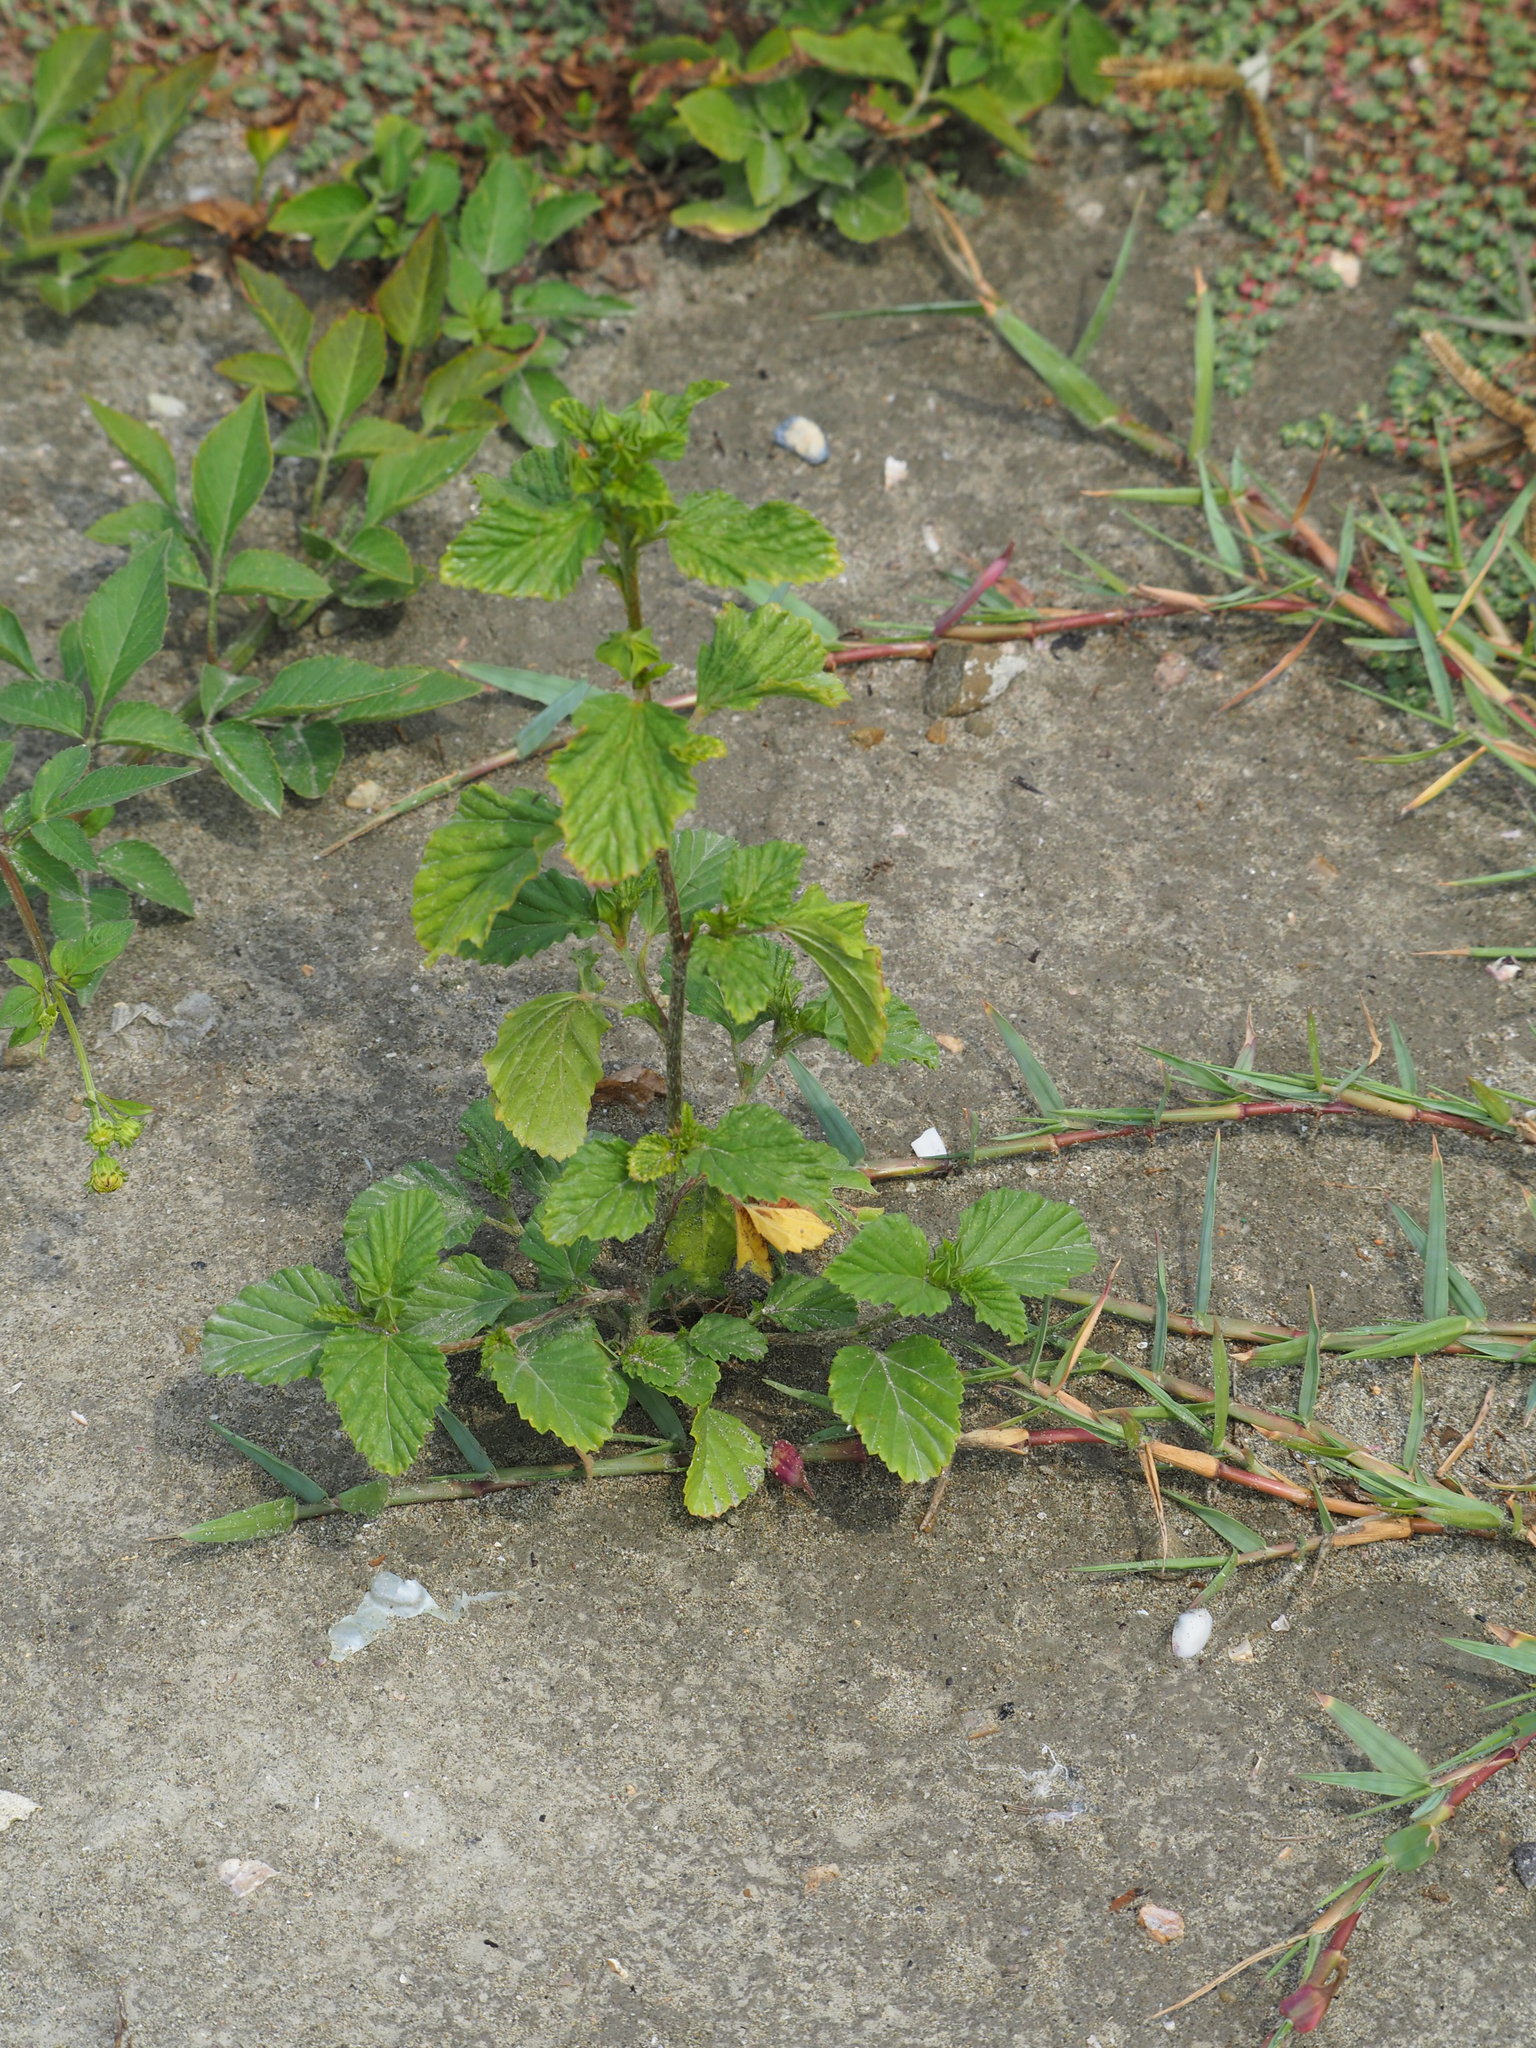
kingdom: Plantae
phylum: Tracheophyta
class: Magnoliopsida
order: Malvales
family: Malvaceae
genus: Malvastrum
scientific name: Malvastrum coromandelianum
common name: Threelobe false mallow
